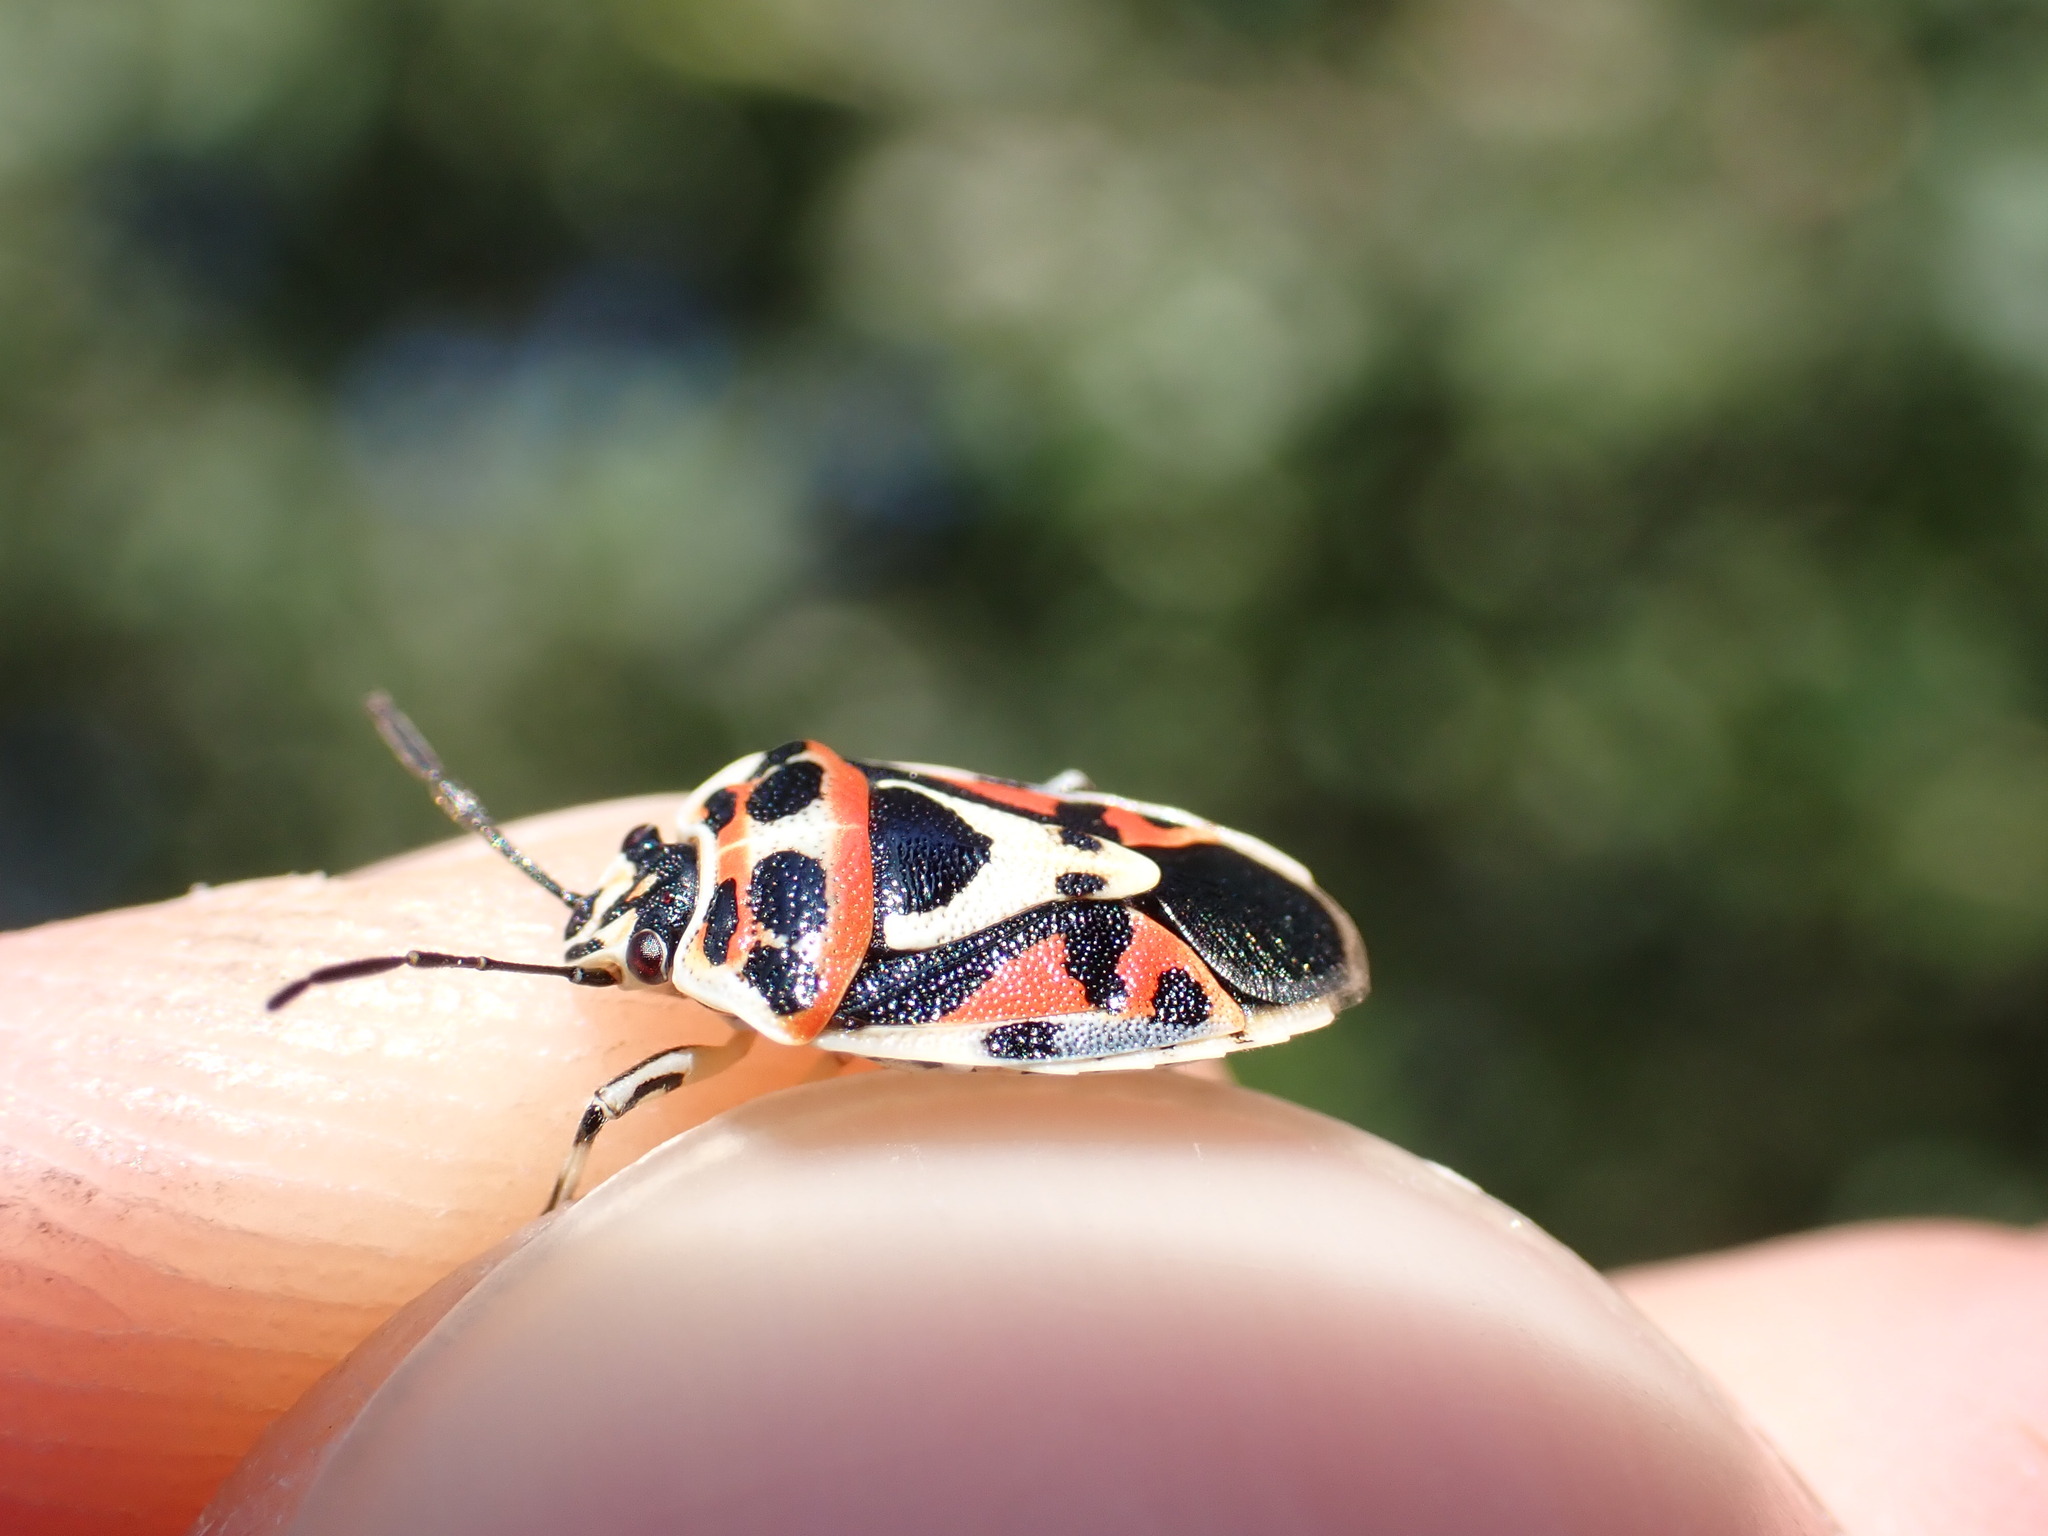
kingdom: Animalia
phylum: Arthropoda
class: Insecta
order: Hemiptera
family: Pentatomidae
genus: Eurydema
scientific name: Eurydema ornata
